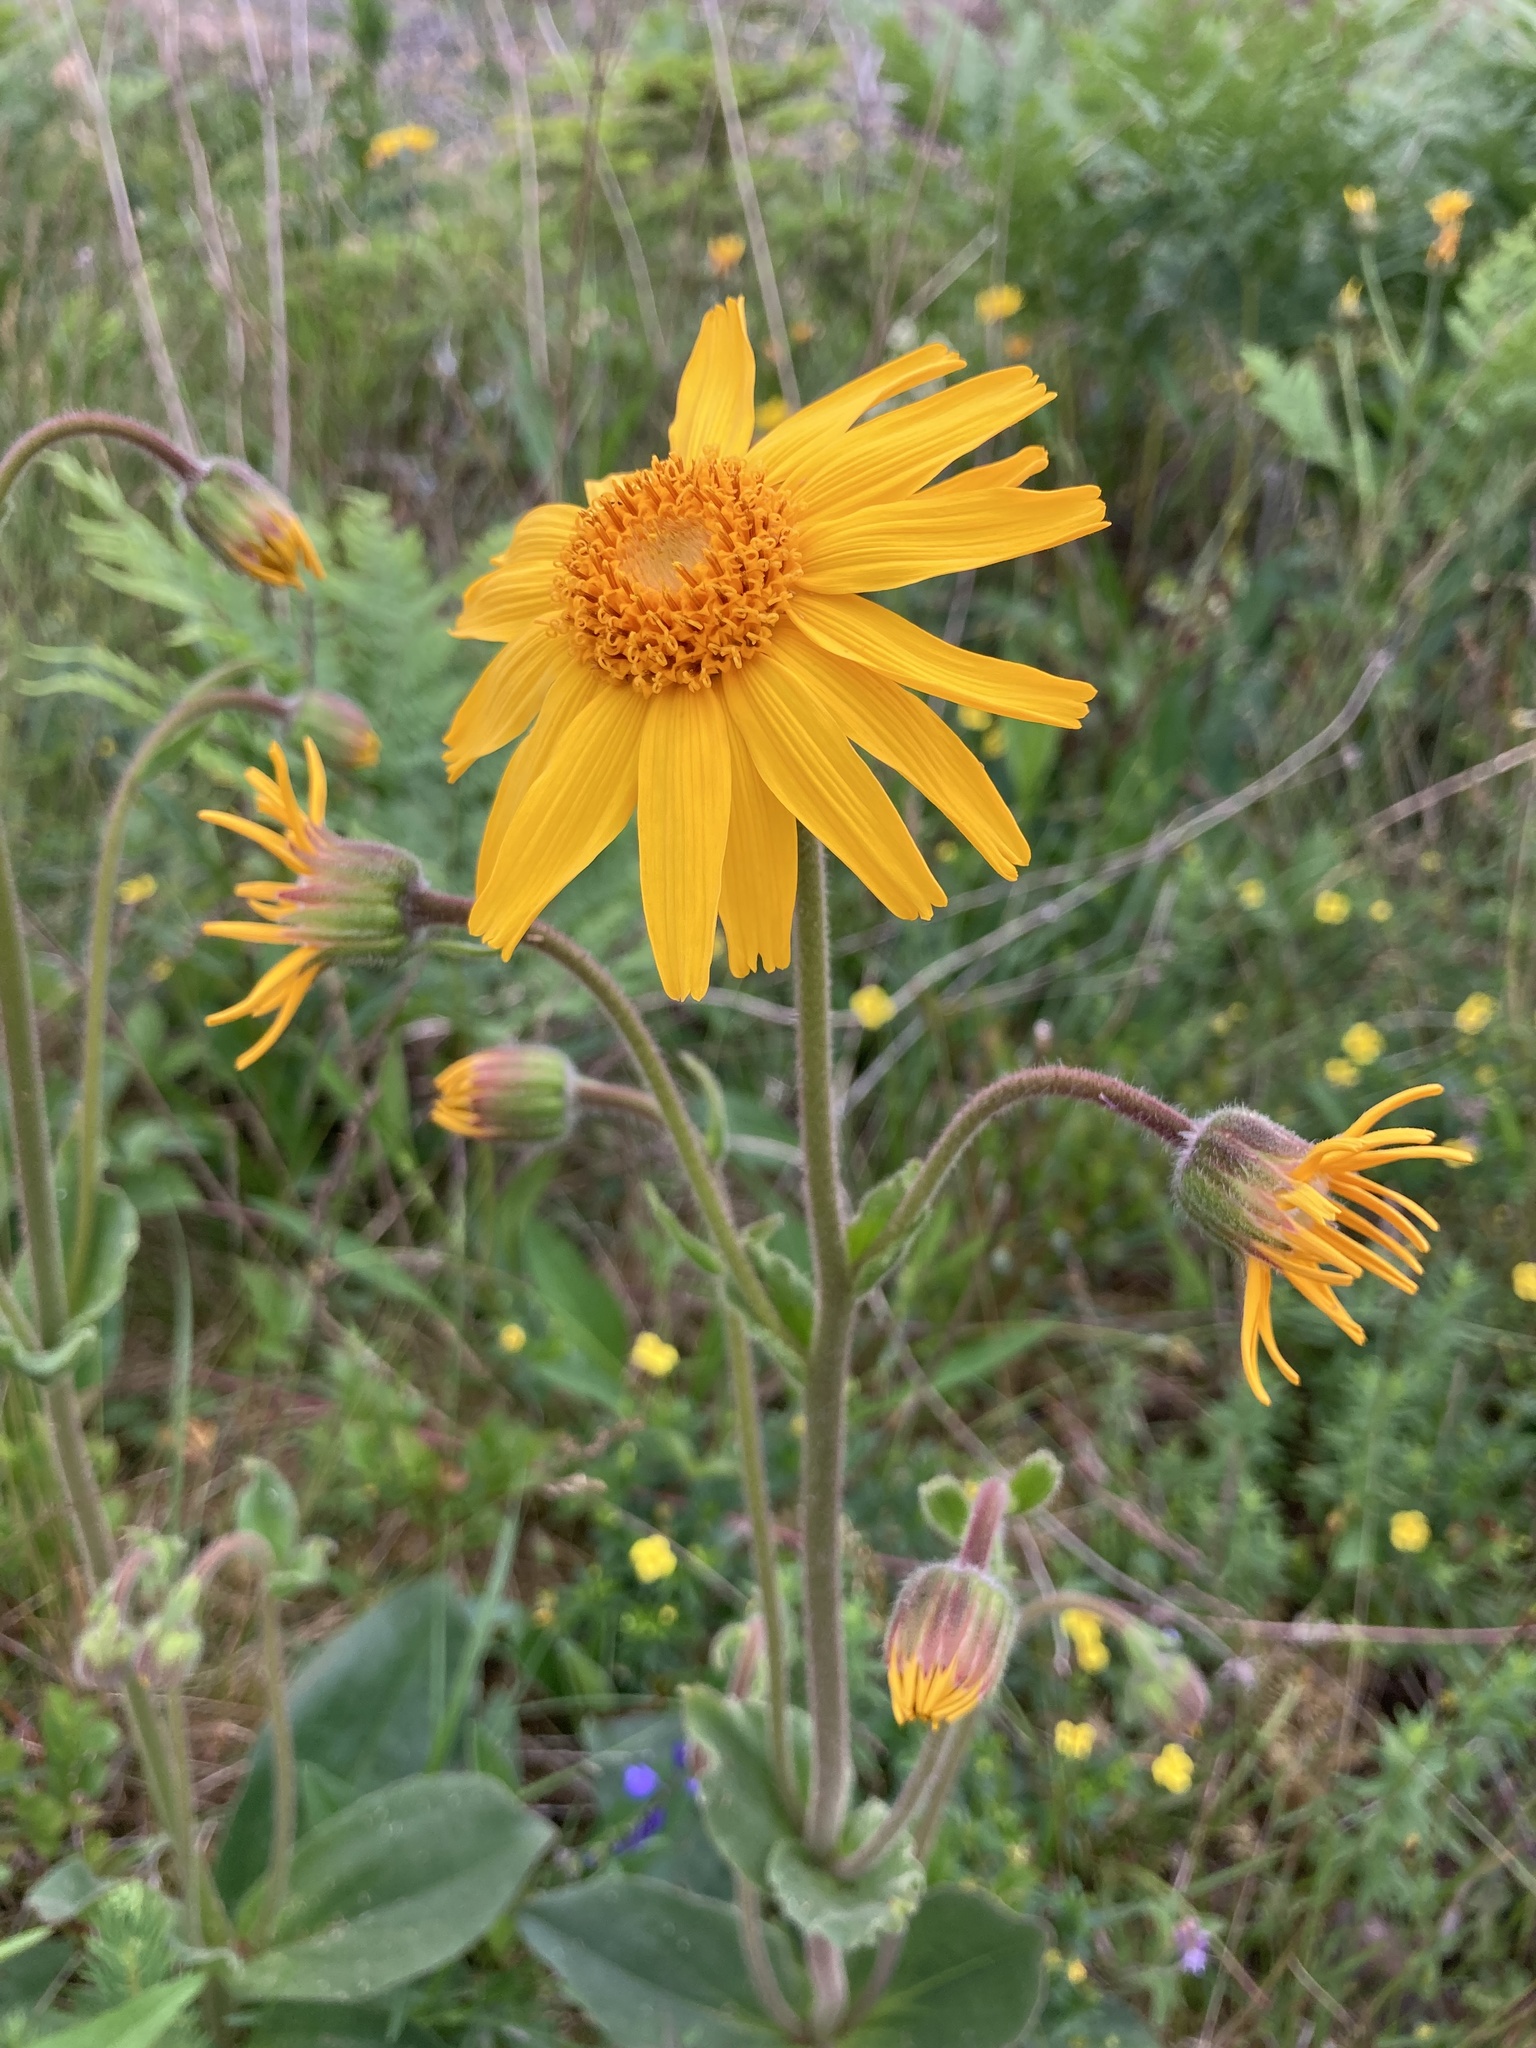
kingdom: Plantae
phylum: Tracheophyta
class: Magnoliopsida
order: Asterales
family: Asteraceae
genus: Arnica
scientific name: Arnica montana
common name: Leopard's bane
